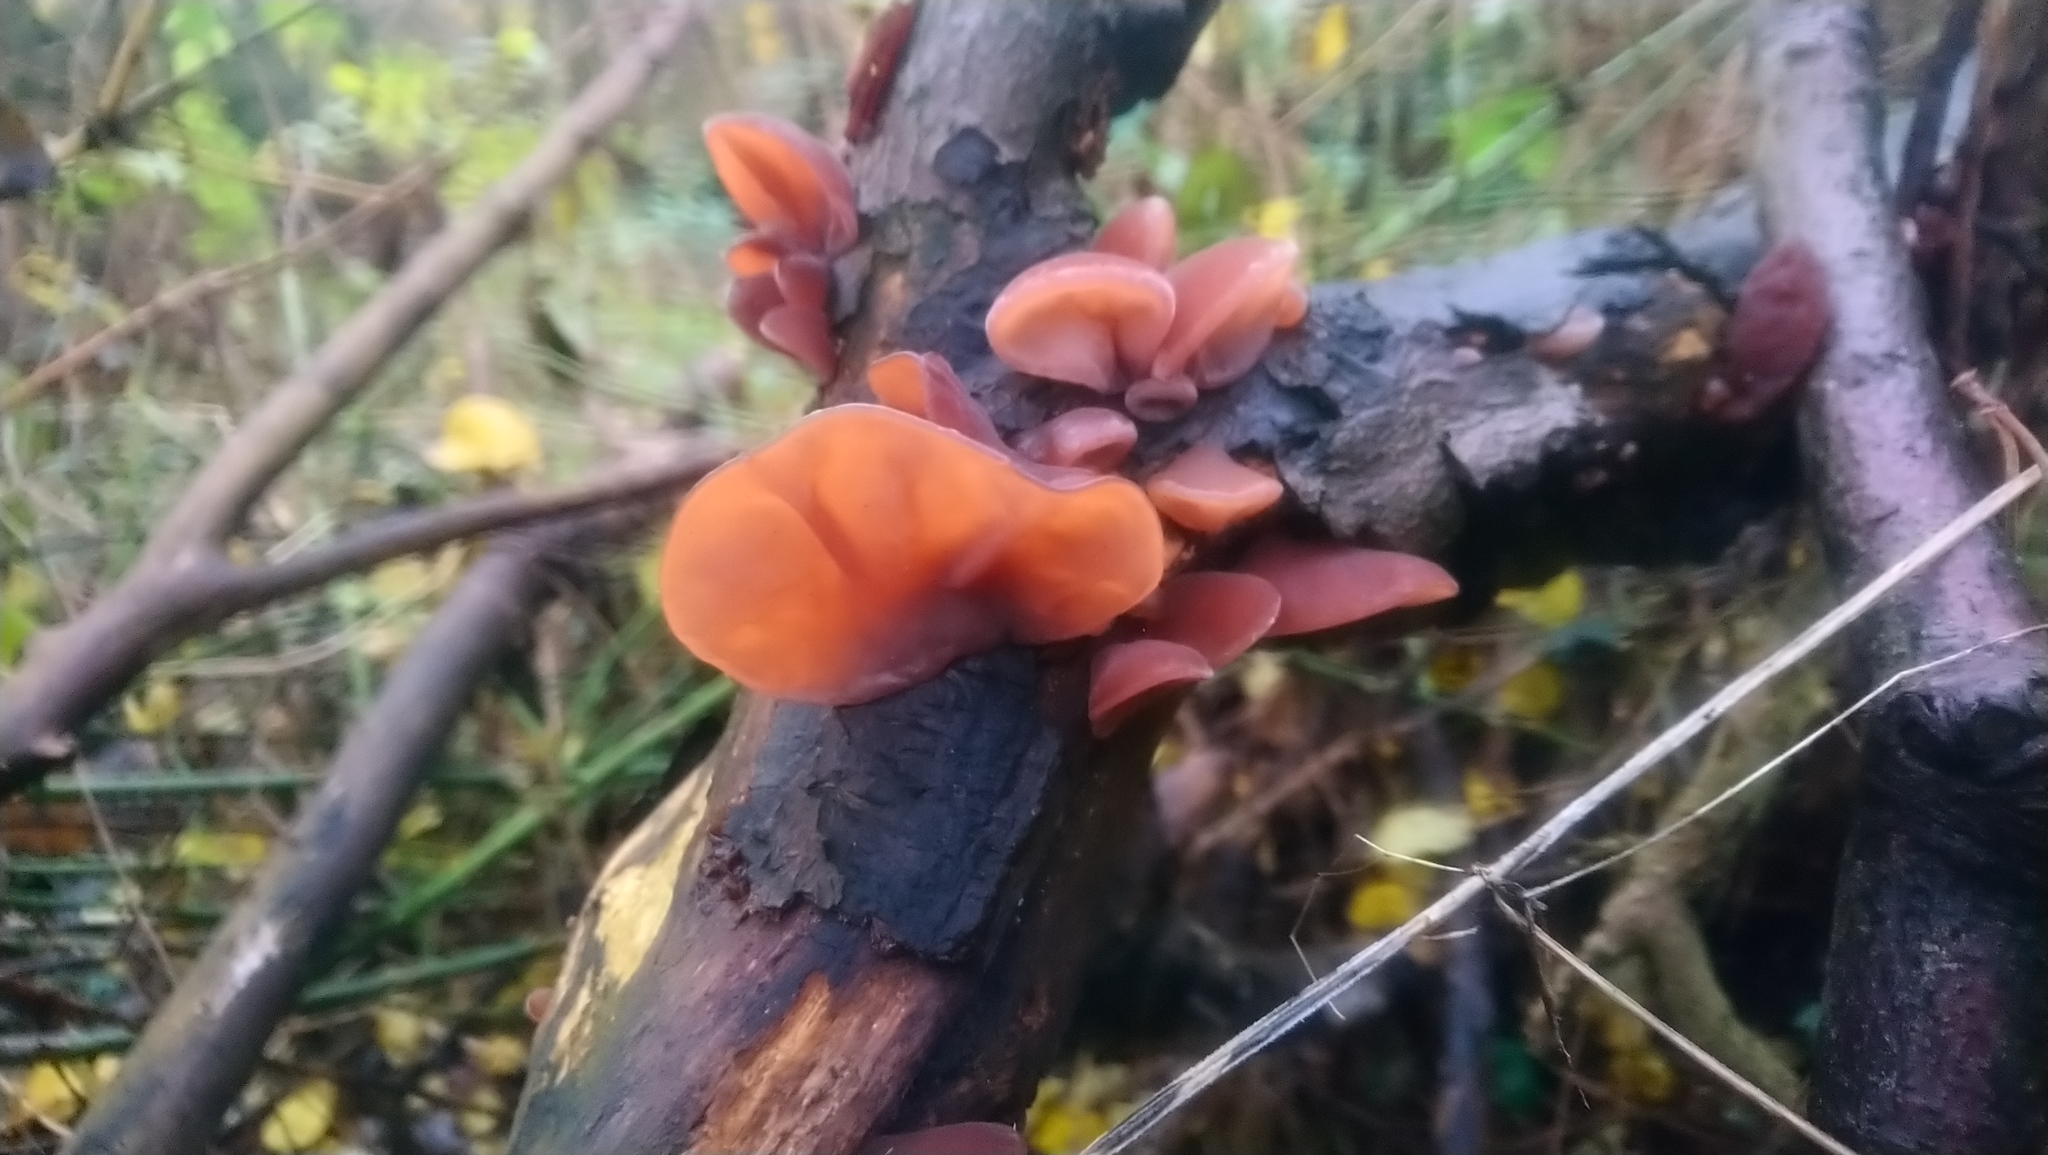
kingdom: Fungi
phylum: Basidiomycota
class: Agaricomycetes
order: Auriculariales
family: Auriculariaceae
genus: Auricularia
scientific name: Auricularia auricula-judae
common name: Jelly ear
